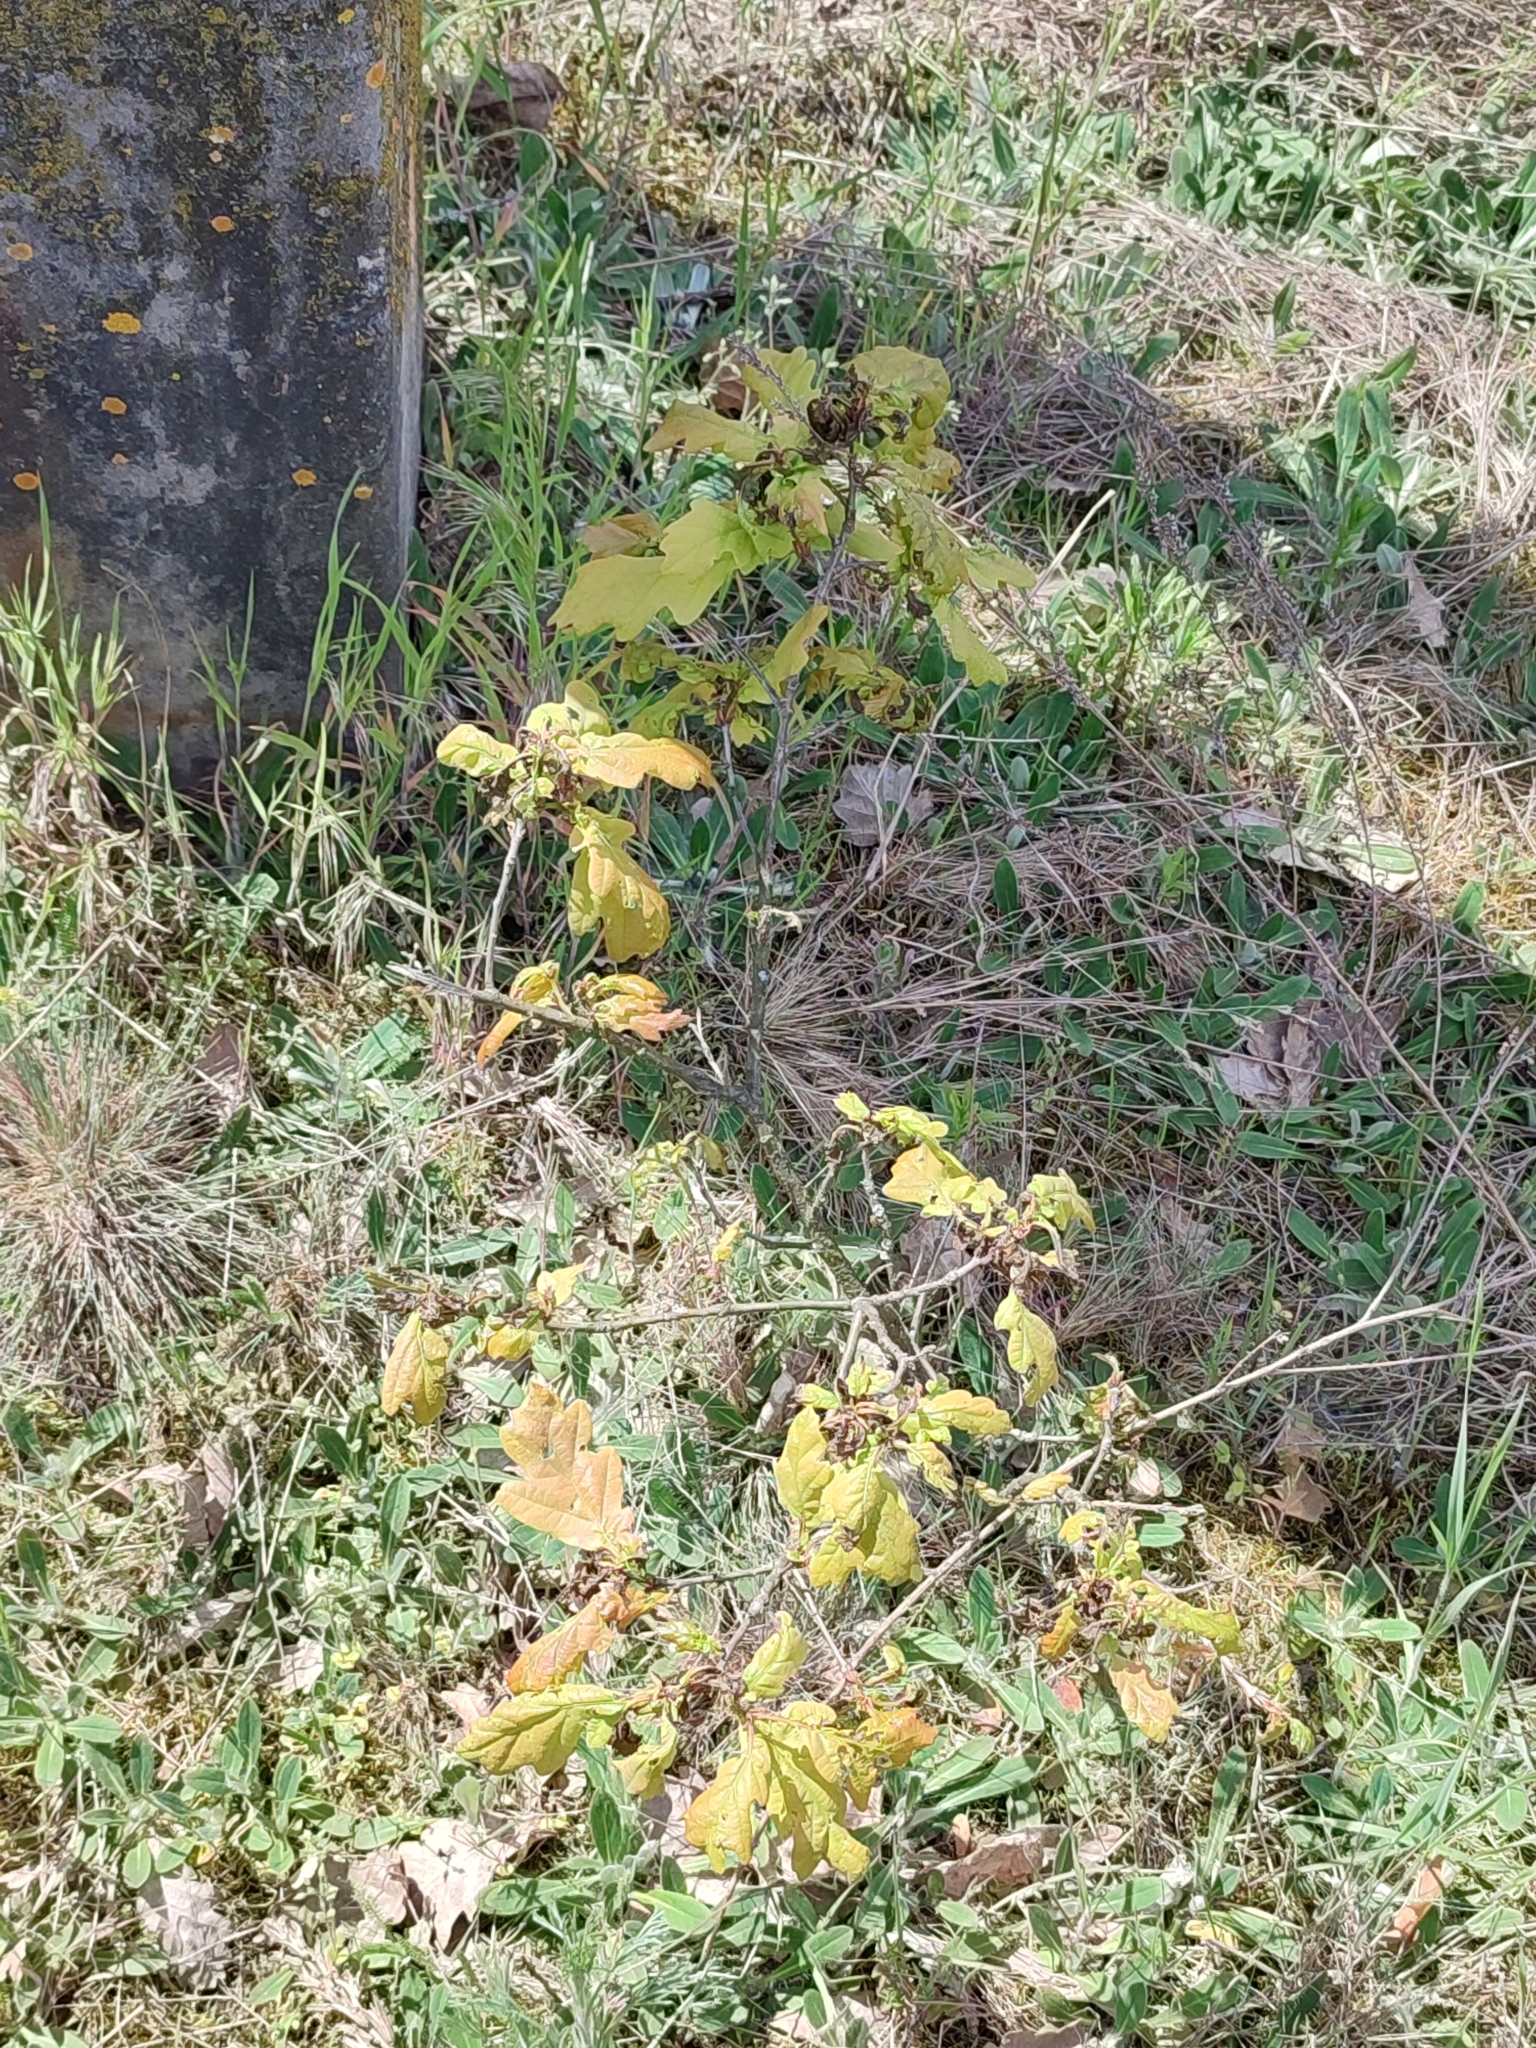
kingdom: Plantae
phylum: Tracheophyta
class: Magnoliopsida
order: Fagales
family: Fagaceae
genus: Quercus
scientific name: Quercus robur
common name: Pedunculate oak
